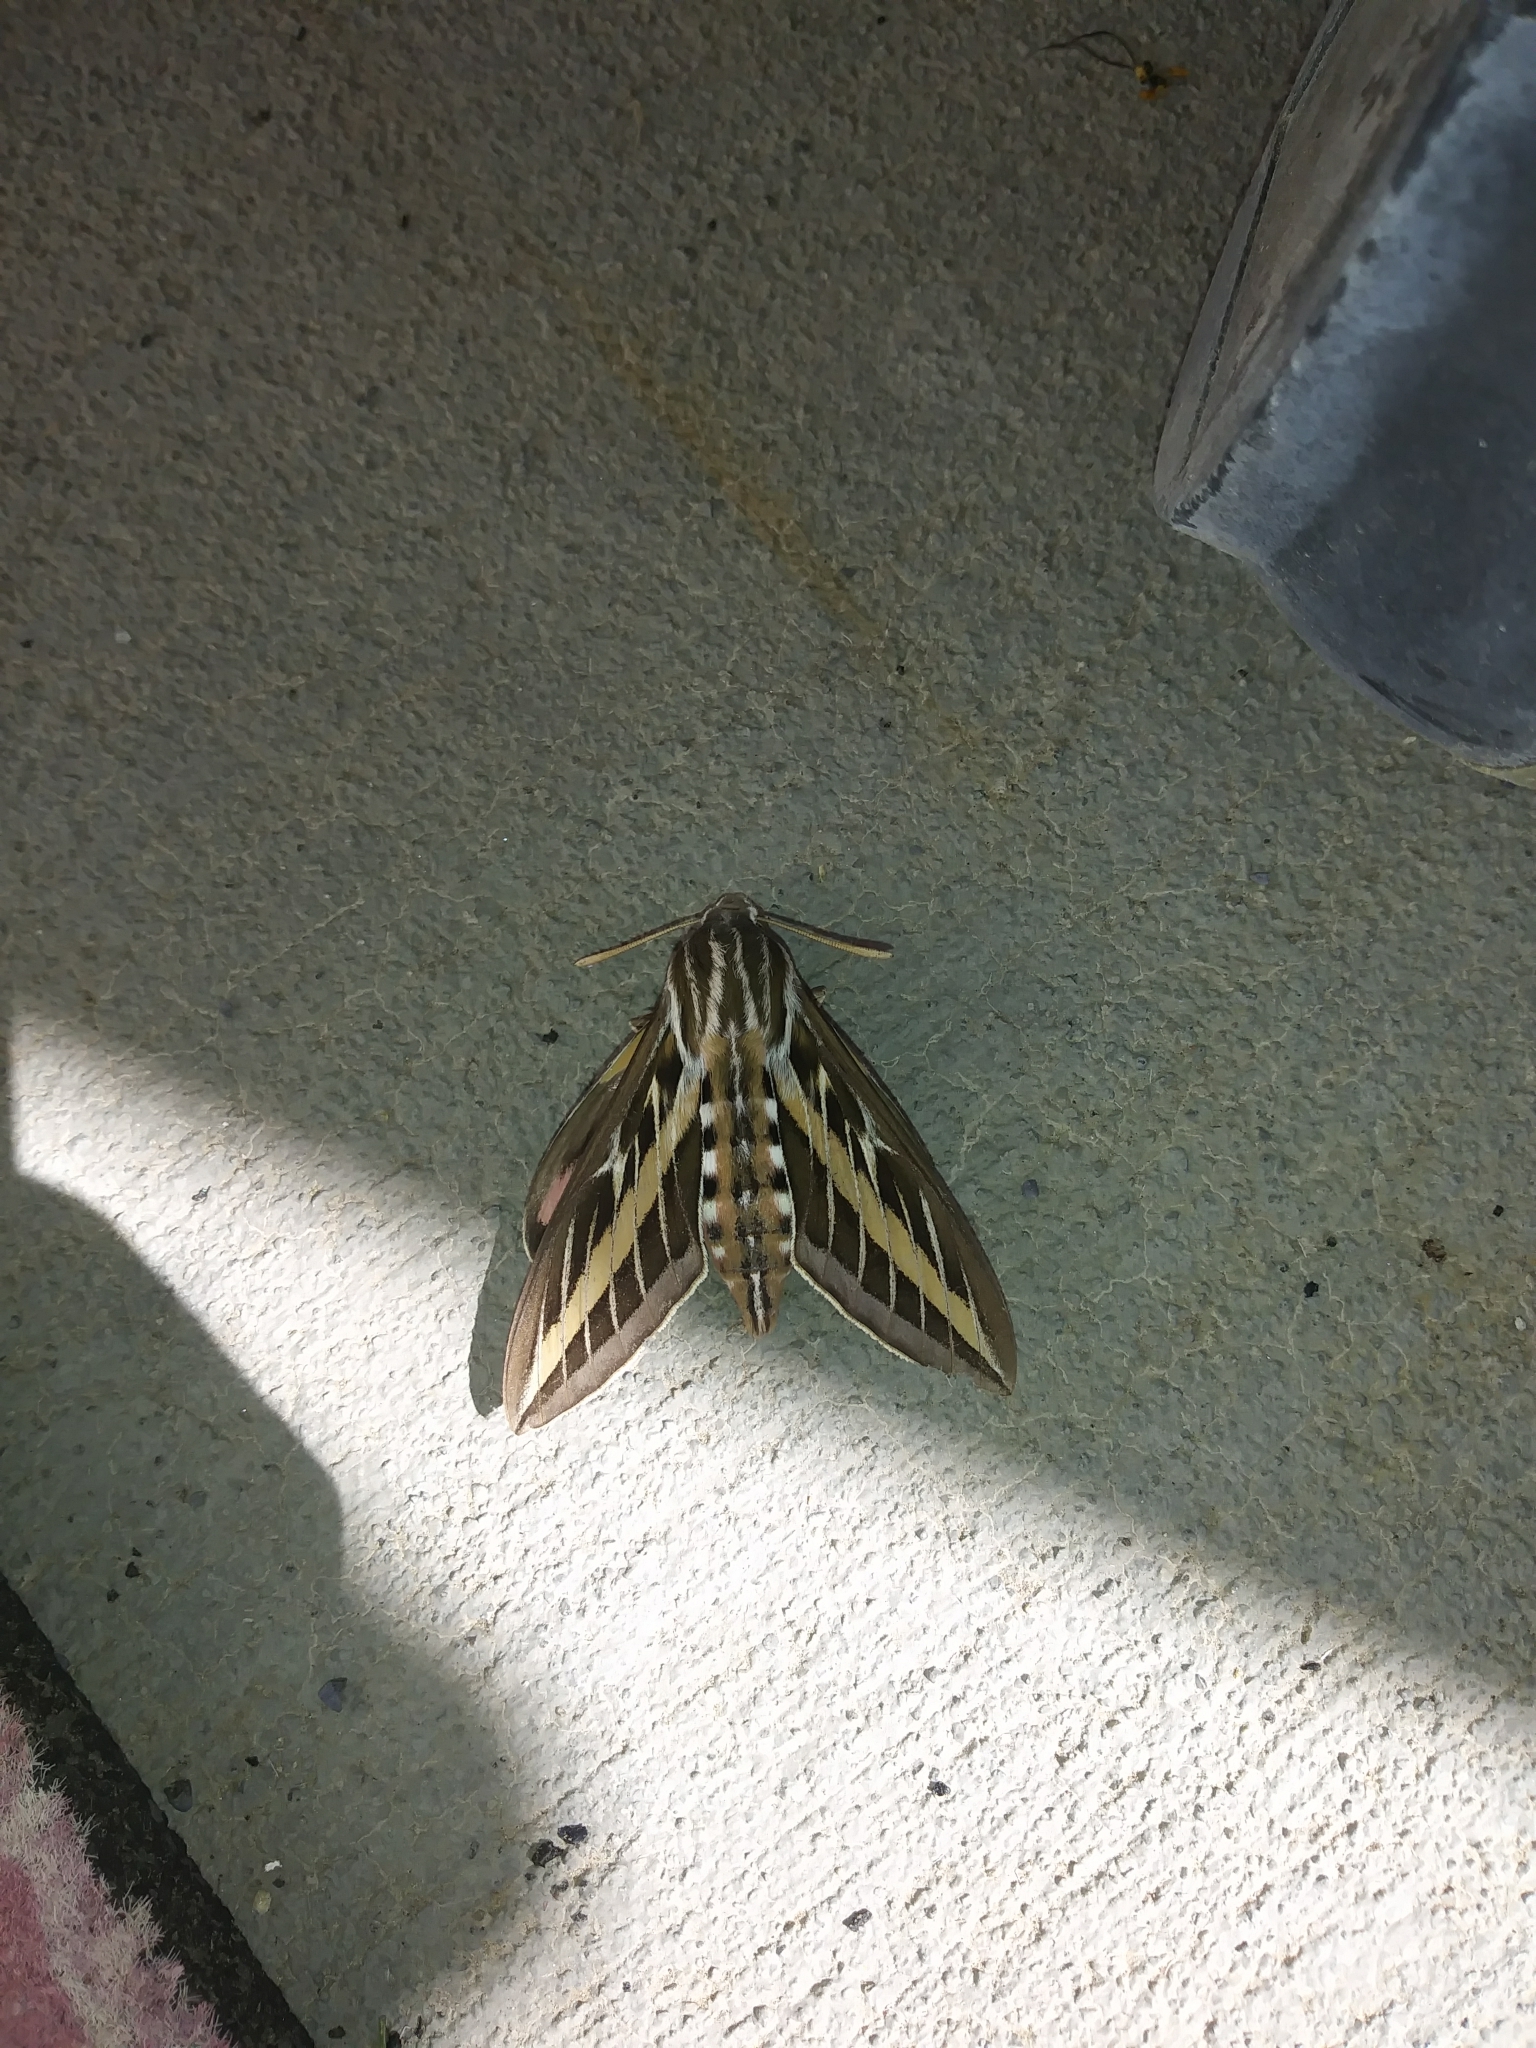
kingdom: Animalia
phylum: Arthropoda
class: Insecta
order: Lepidoptera
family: Sphingidae
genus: Hyles
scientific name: Hyles lineata
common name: White-lined sphinx
